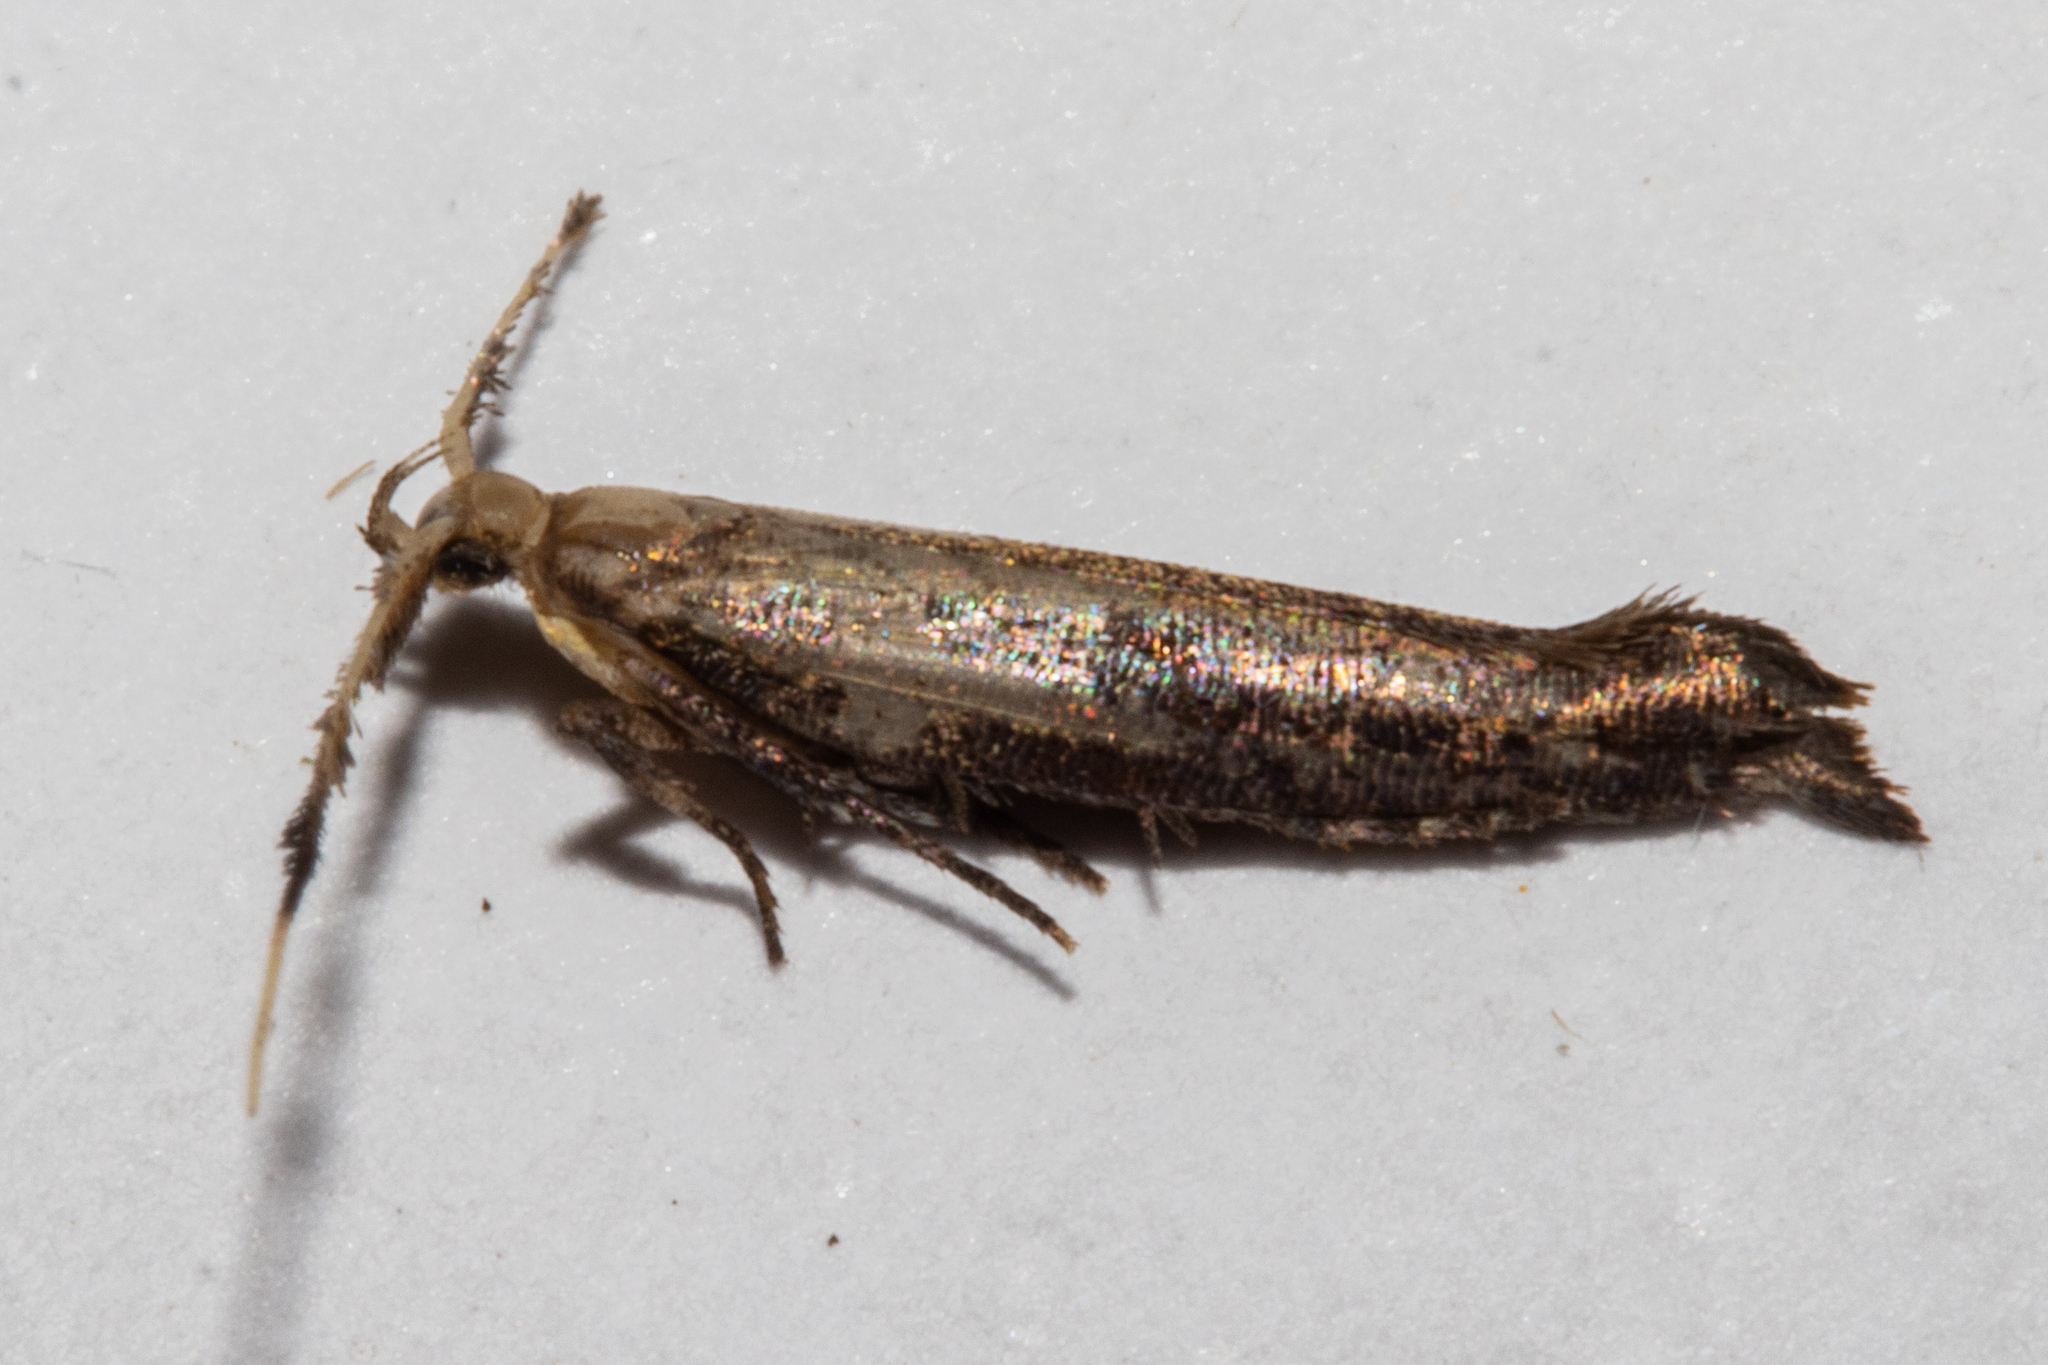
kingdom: Animalia
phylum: Arthropoda
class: Insecta
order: Lepidoptera
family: Plutellidae
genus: Protosynaema
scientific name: Protosynaema steropucha
